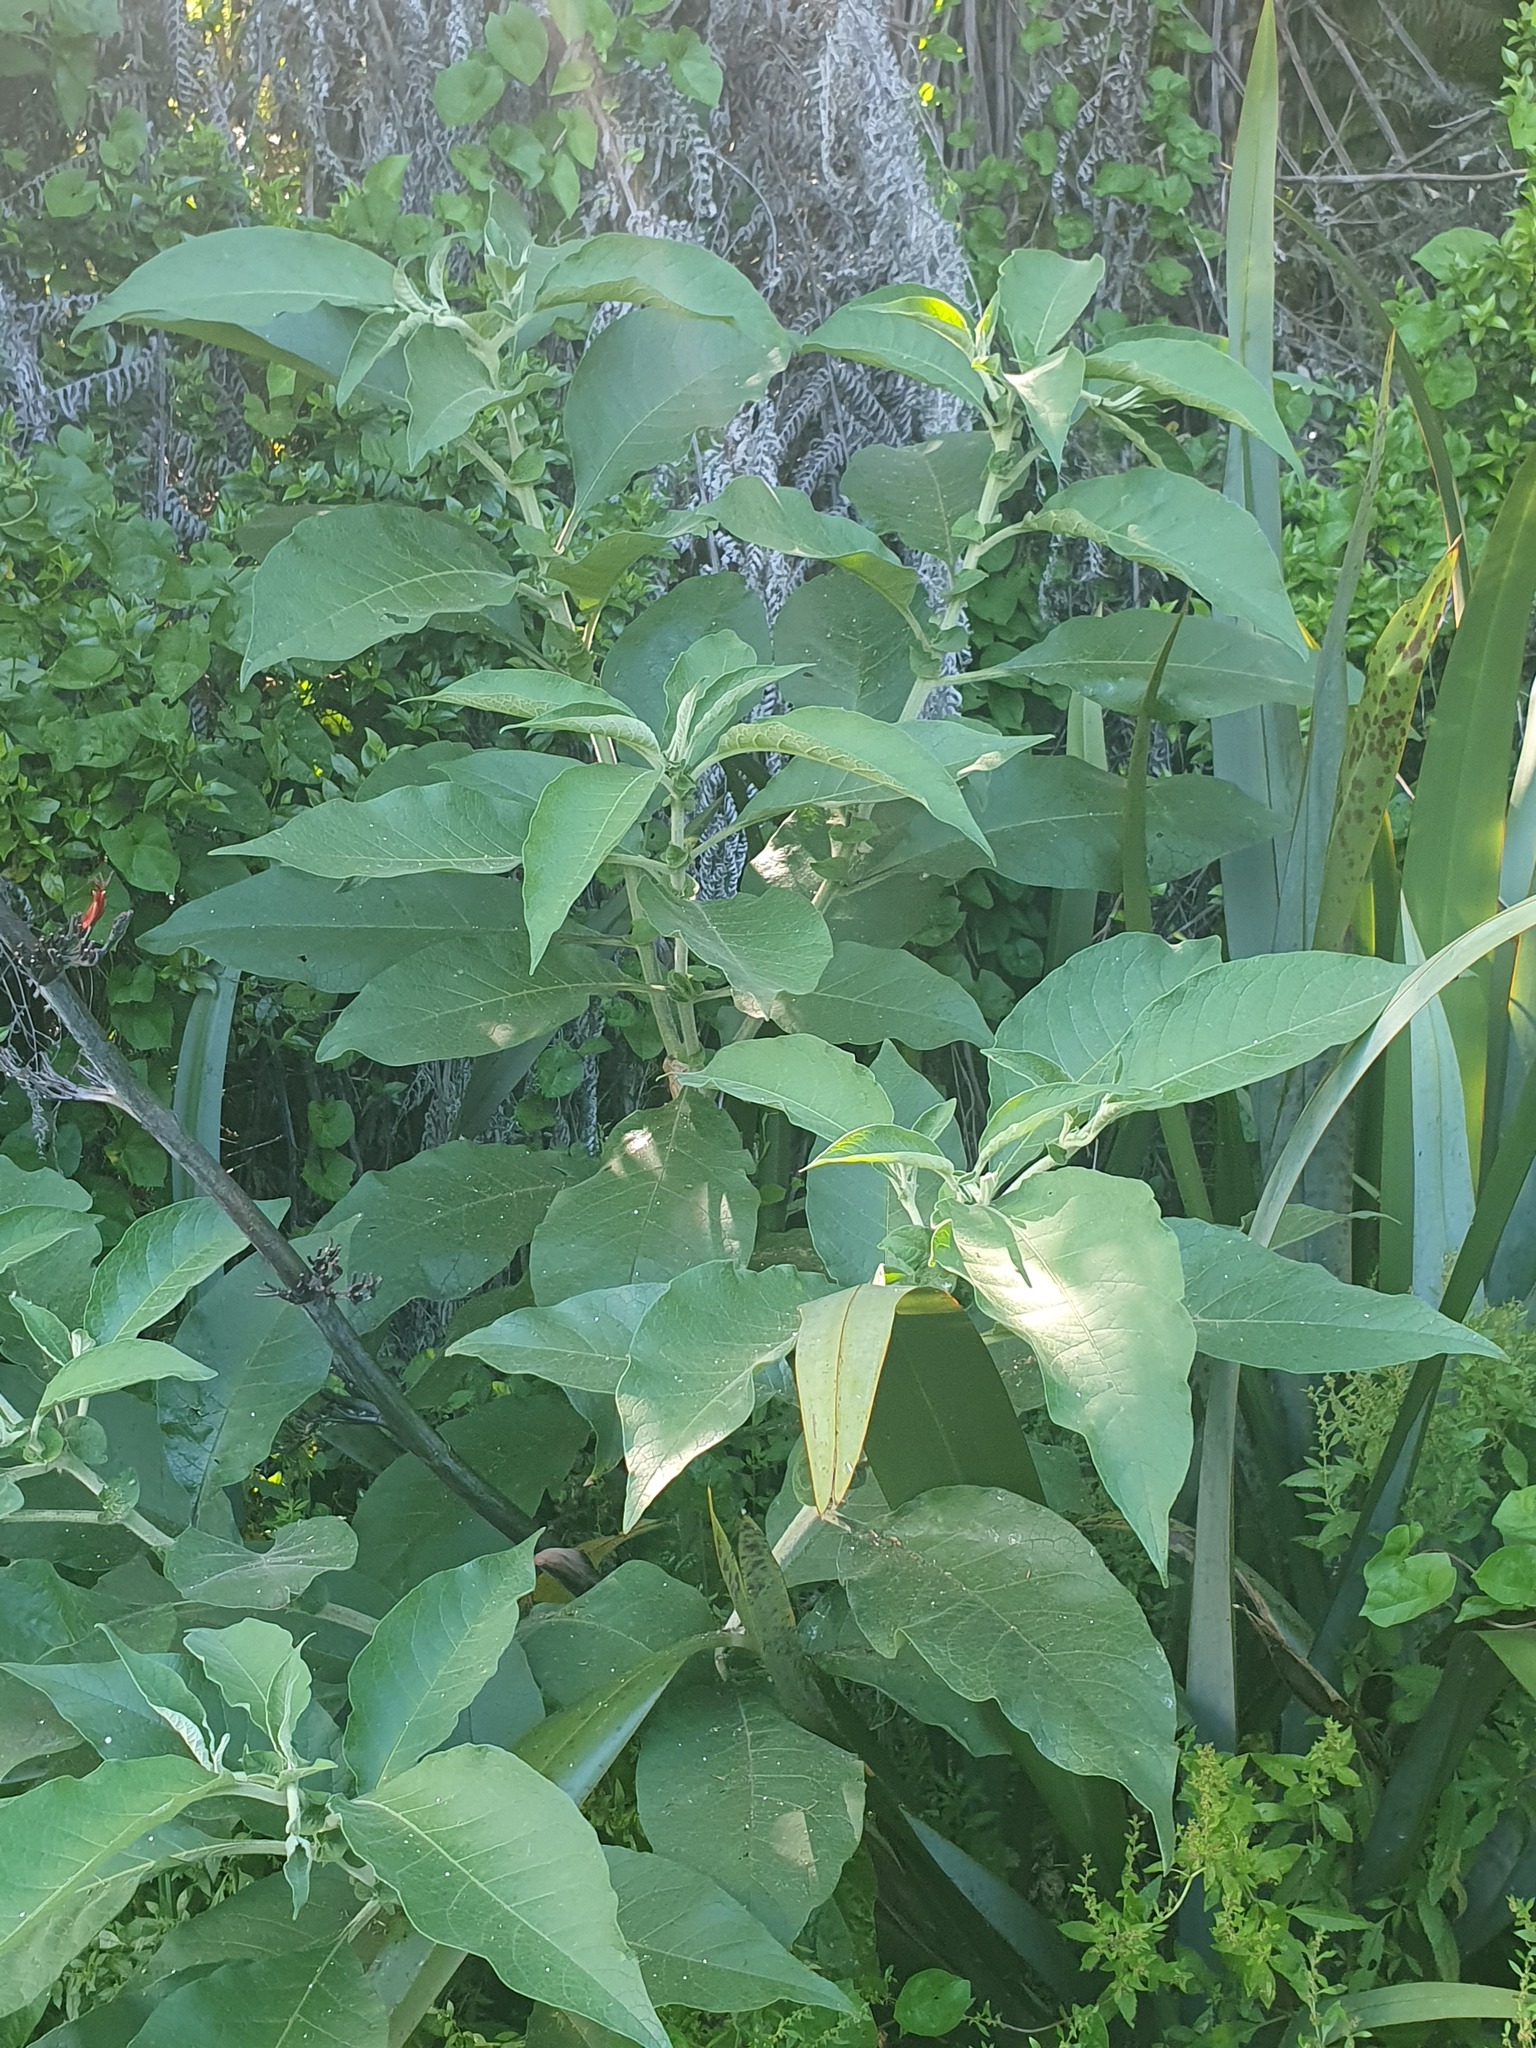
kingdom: Plantae
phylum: Tracheophyta
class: Magnoliopsida
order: Solanales
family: Solanaceae
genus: Solanum
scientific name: Solanum mauritianum
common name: Earleaf nightshade
